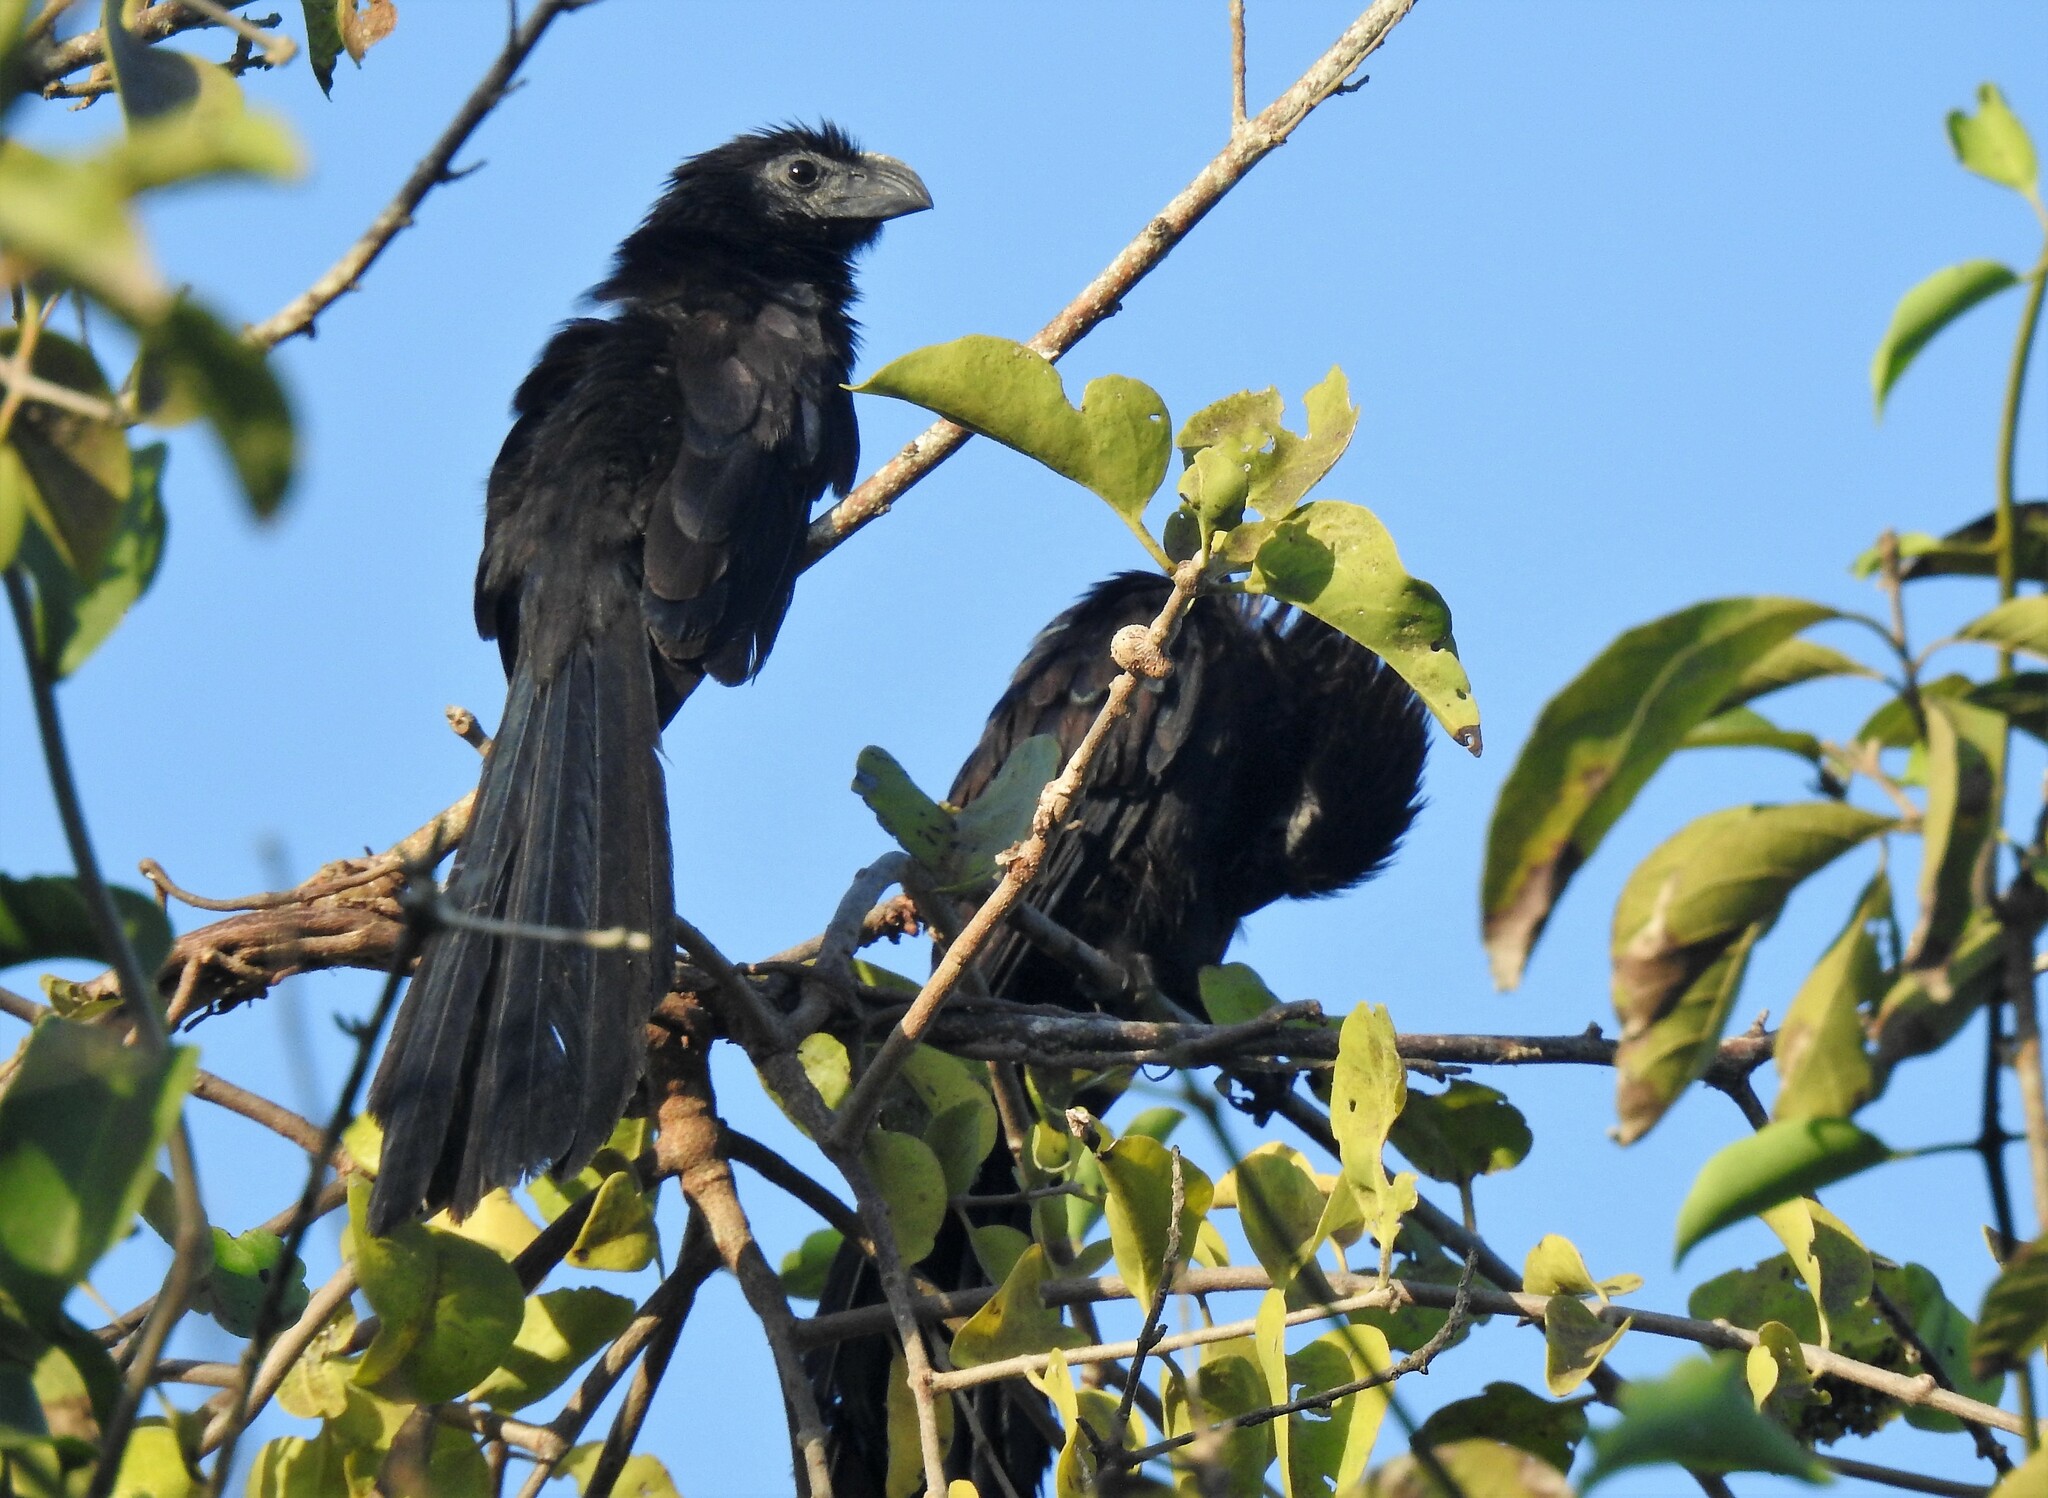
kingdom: Animalia
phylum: Chordata
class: Aves
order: Cuculiformes
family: Cuculidae
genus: Crotophaga
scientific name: Crotophaga sulcirostris
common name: Groove-billed ani
